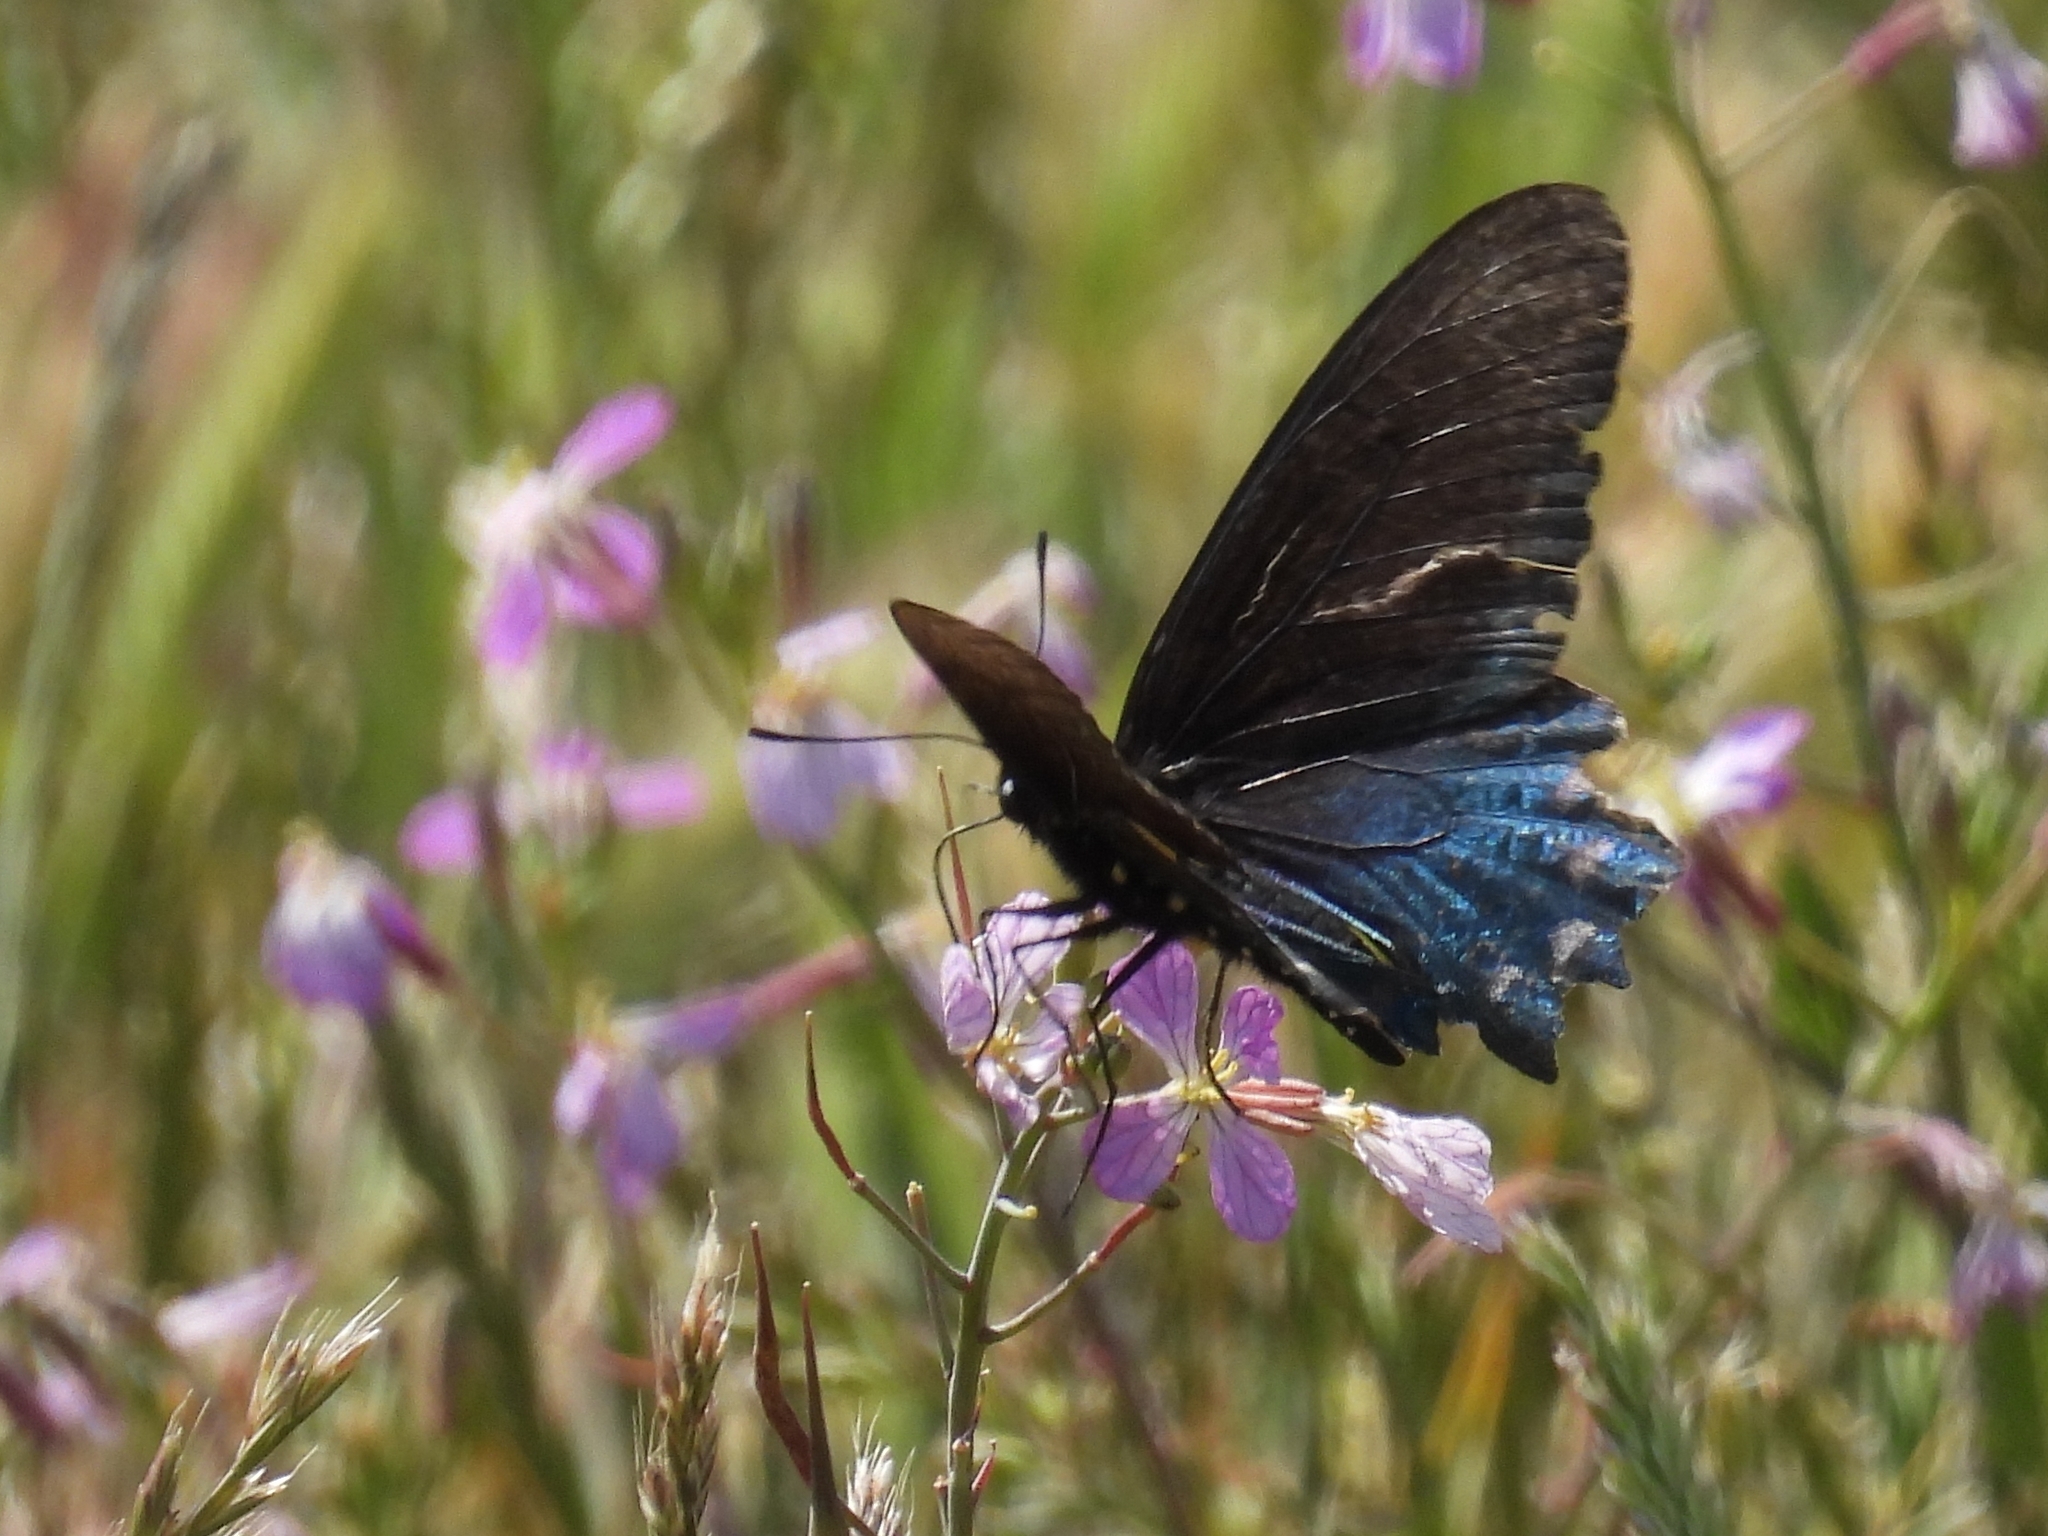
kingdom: Animalia
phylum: Arthropoda
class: Insecta
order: Lepidoptera
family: Papilionidae
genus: Battus
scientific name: Battus philenor
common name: Pipevine swallowtail
